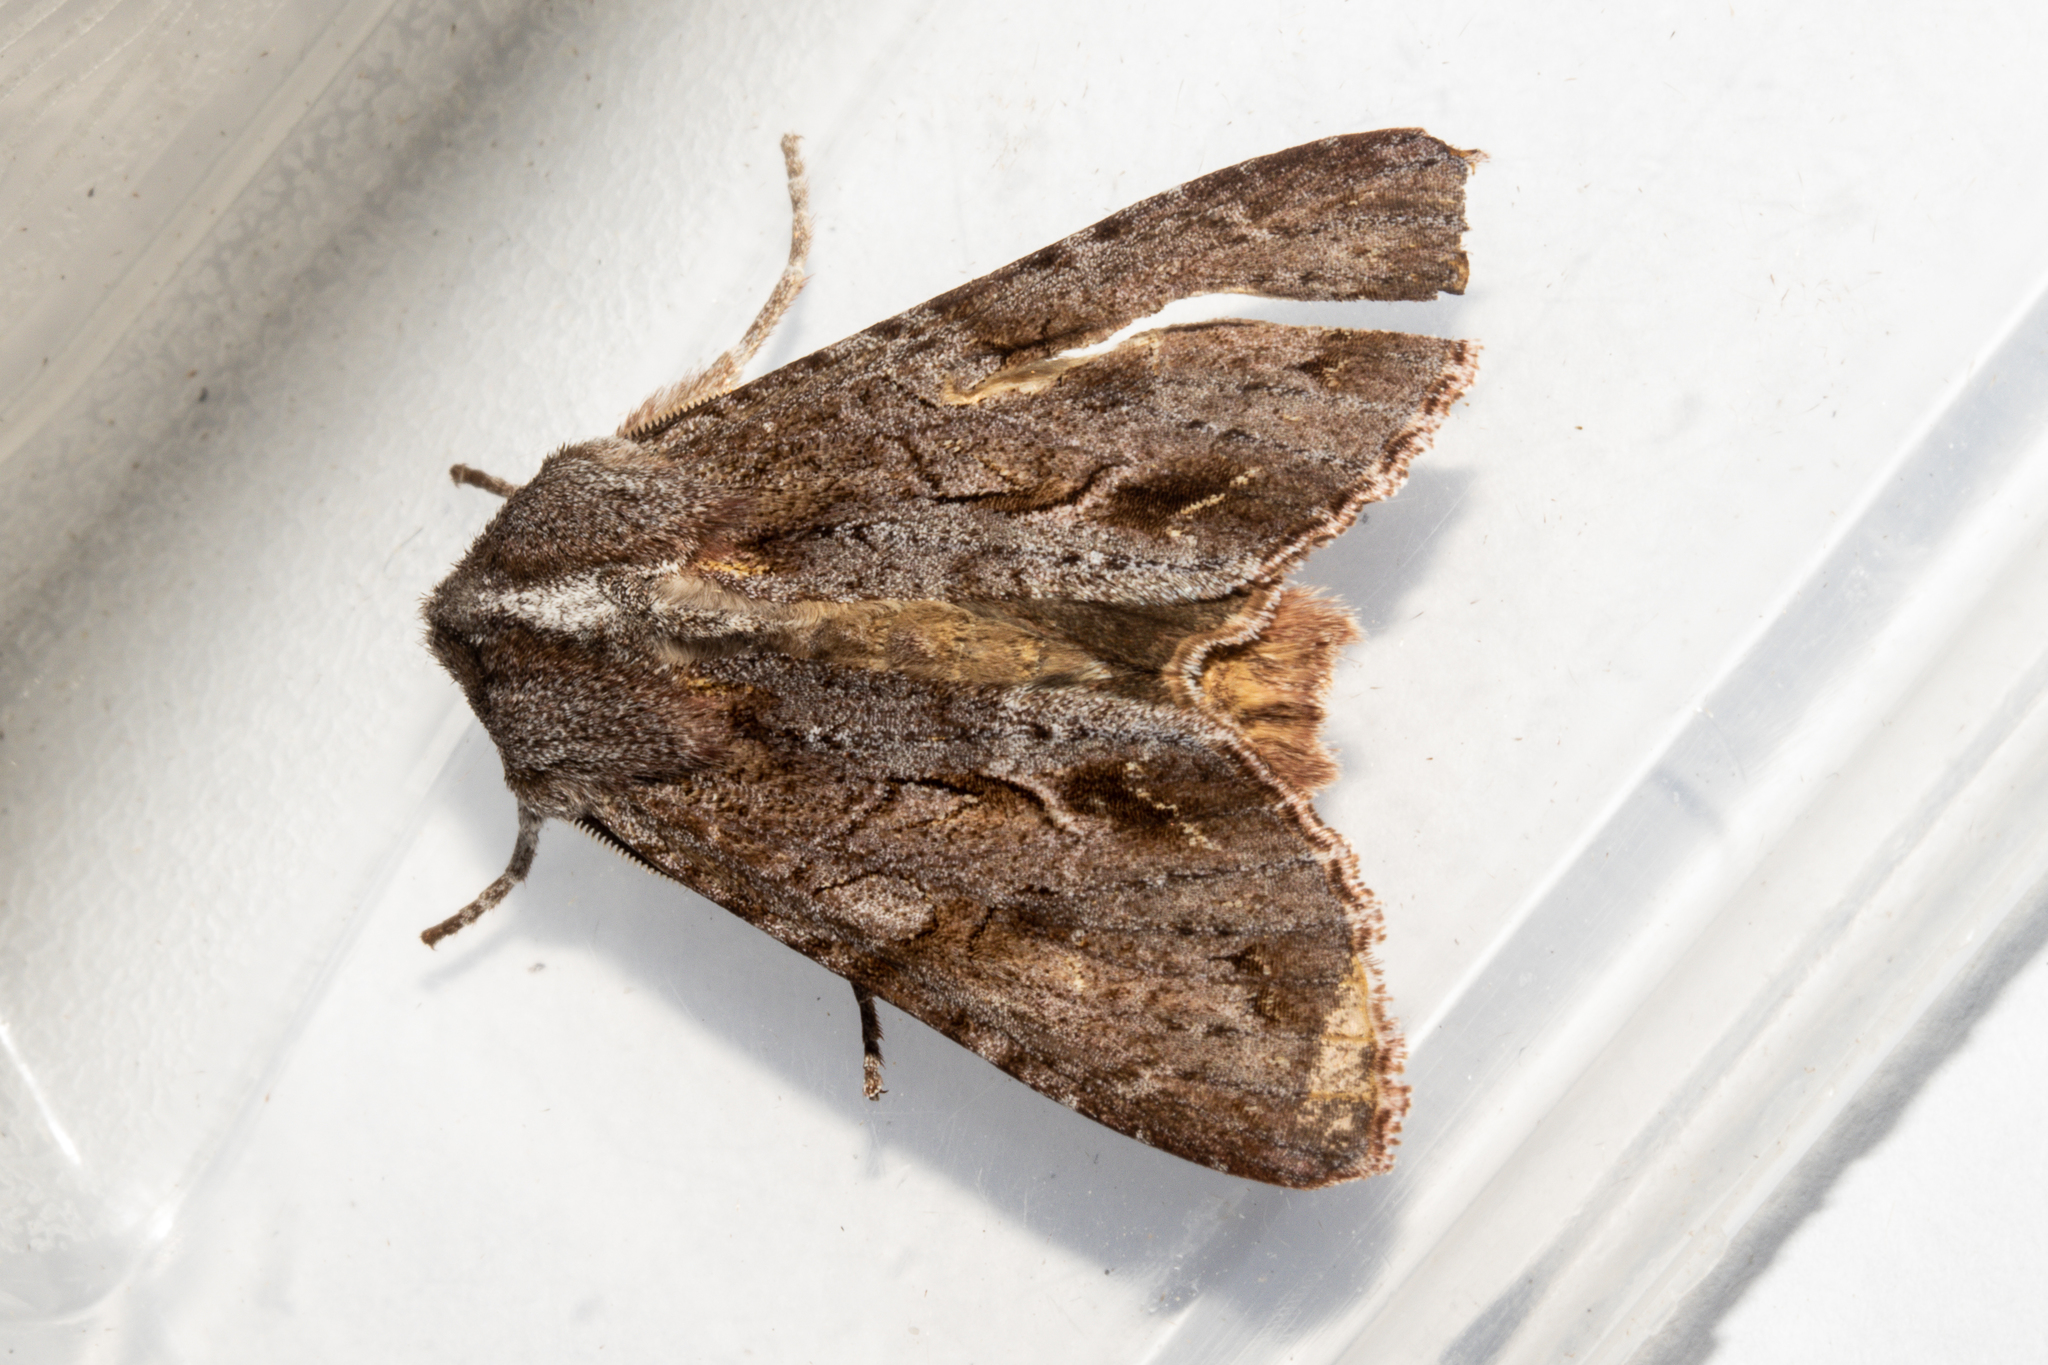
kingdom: Animalia
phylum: Arthropoda
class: Insecta
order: Lepidoptera
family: Noctuidae
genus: Ichneutica
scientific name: Ichneutica
